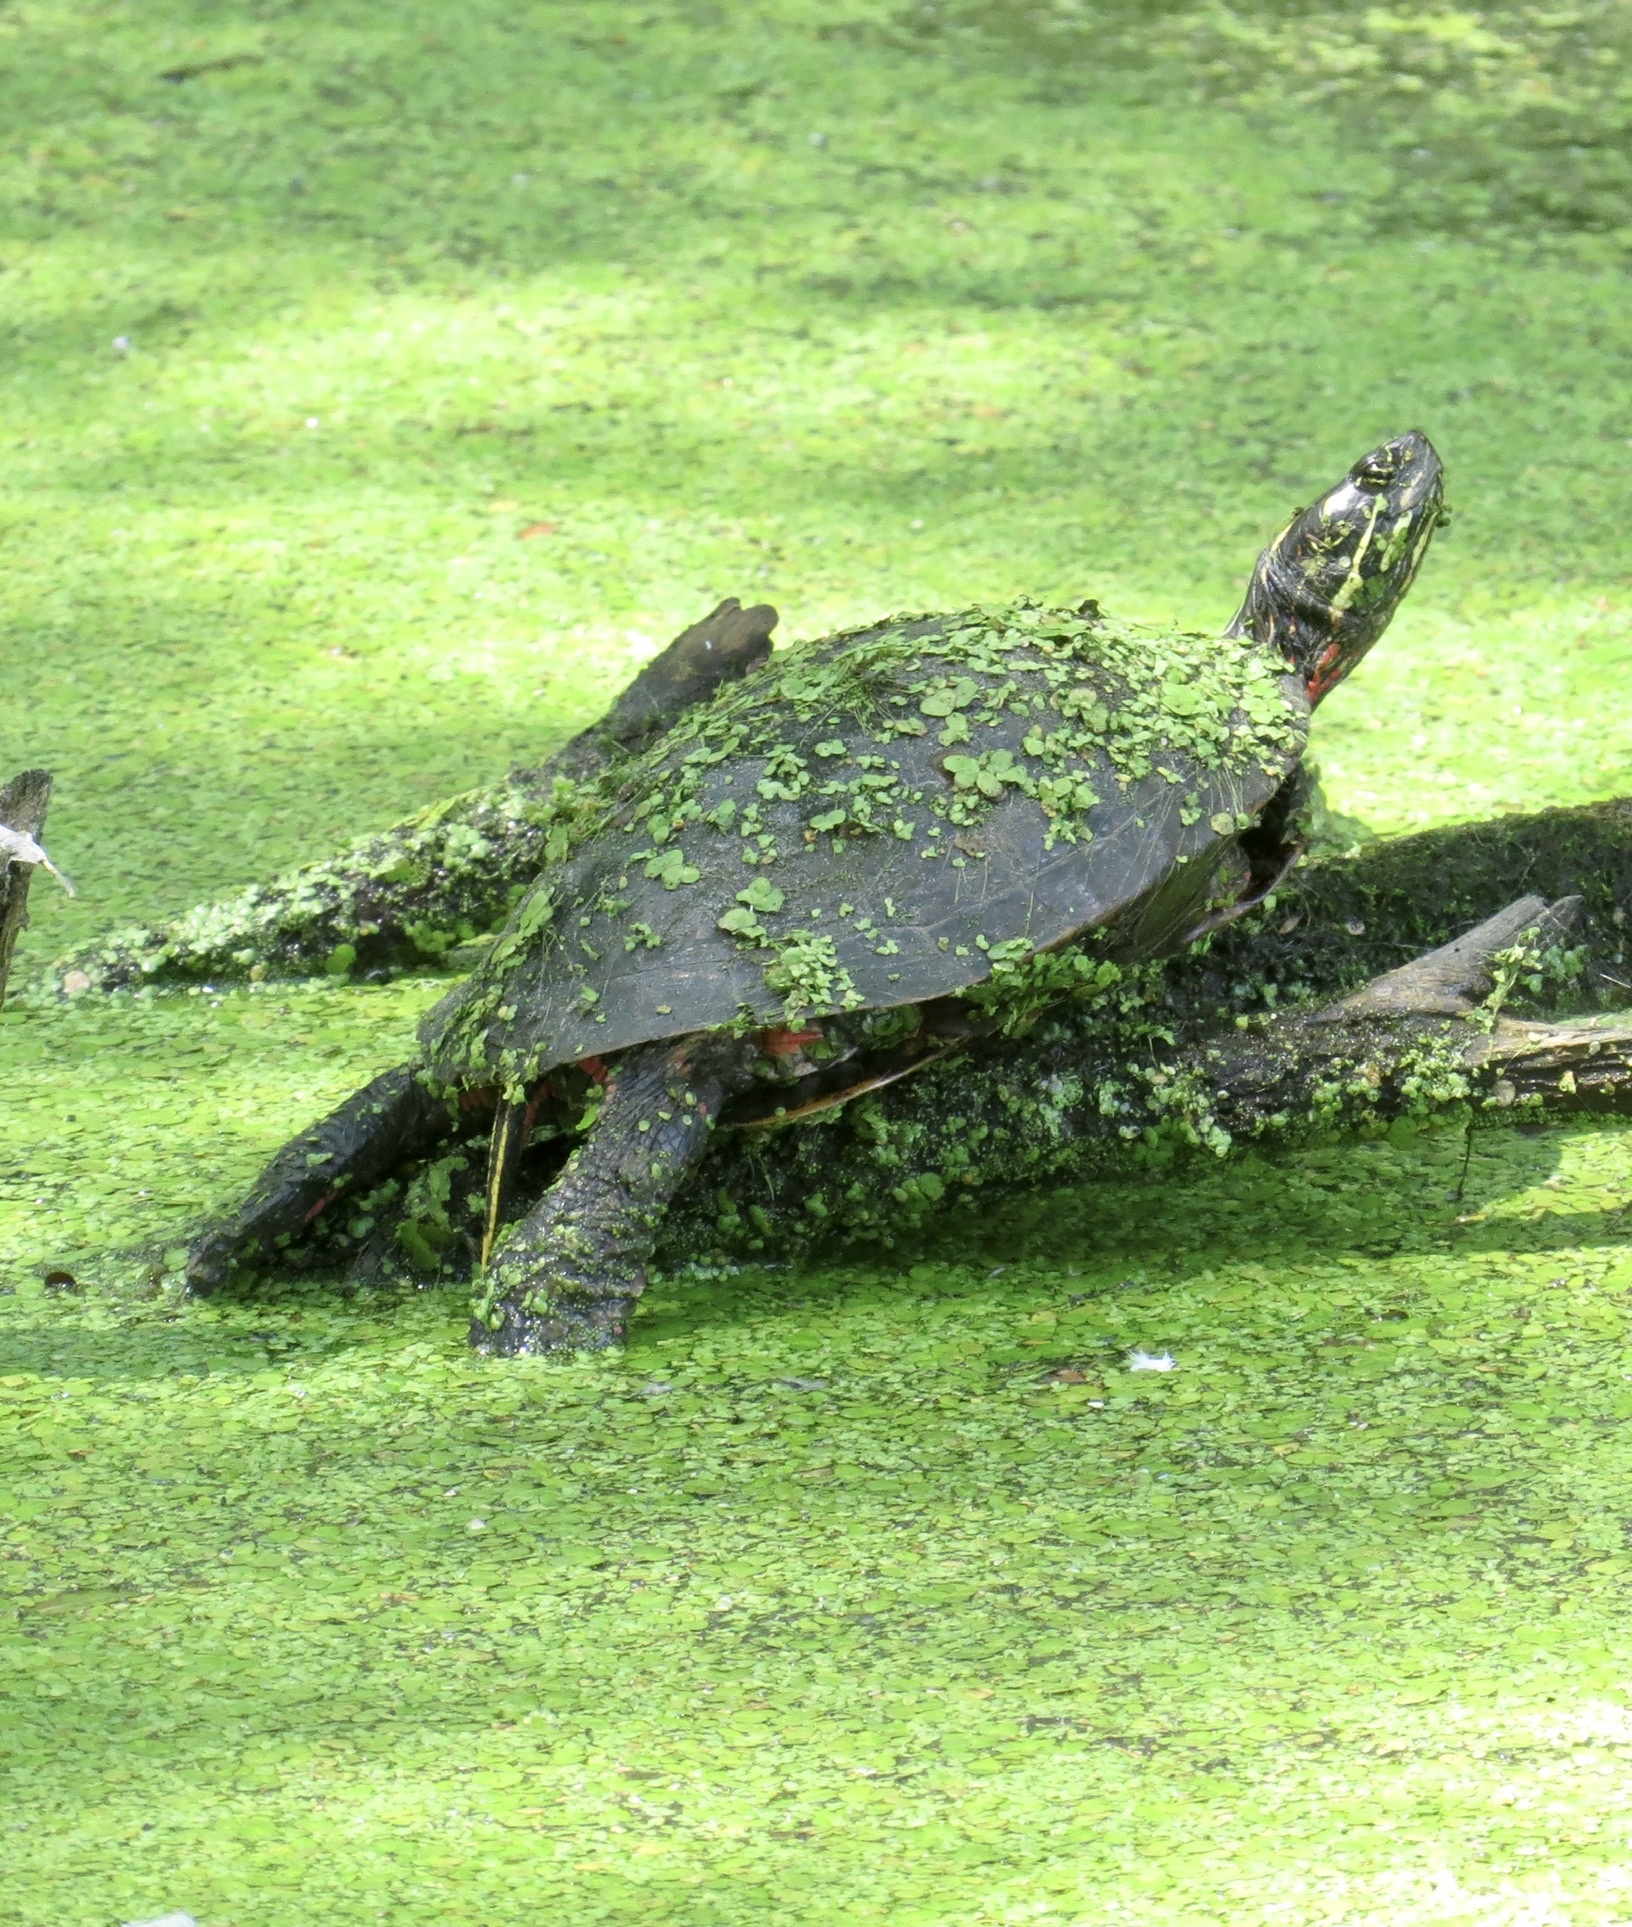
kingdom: Animalia
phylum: Chordata
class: Testudines
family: Emydidae
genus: Chrysemys
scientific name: Chrysemys picta
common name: Painted turtle
